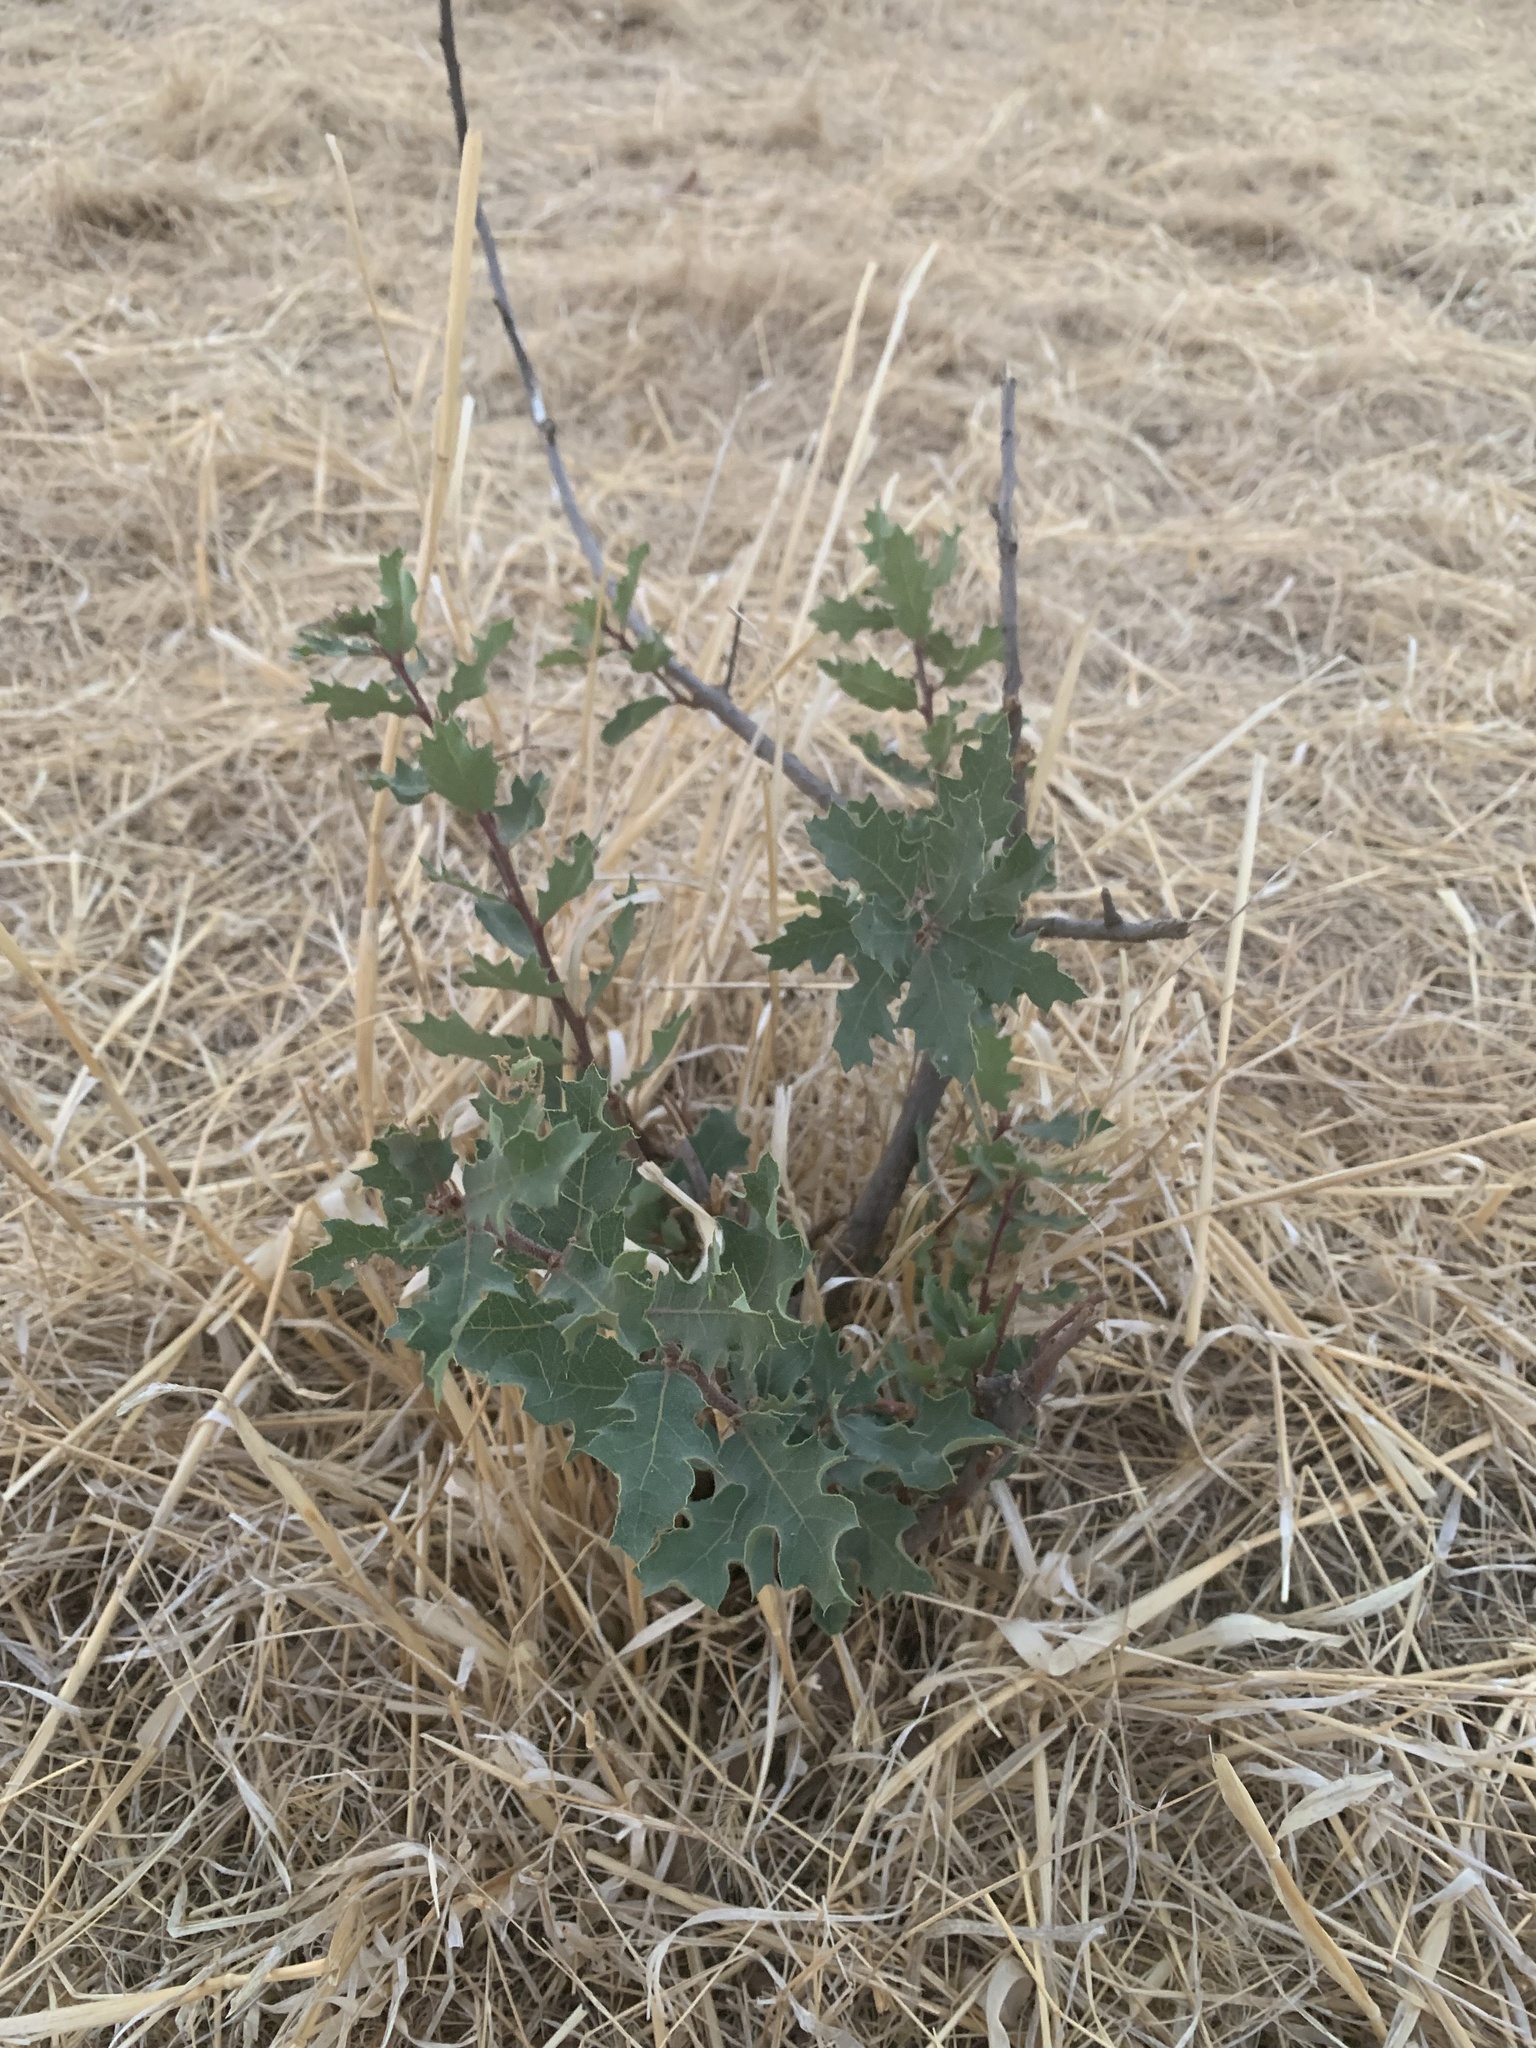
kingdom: Plantae
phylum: Tracheophyta
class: Magnoliopsida
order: Fagales
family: Fagaceae
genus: Quercus
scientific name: Quercus douglasii
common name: Blue oak
